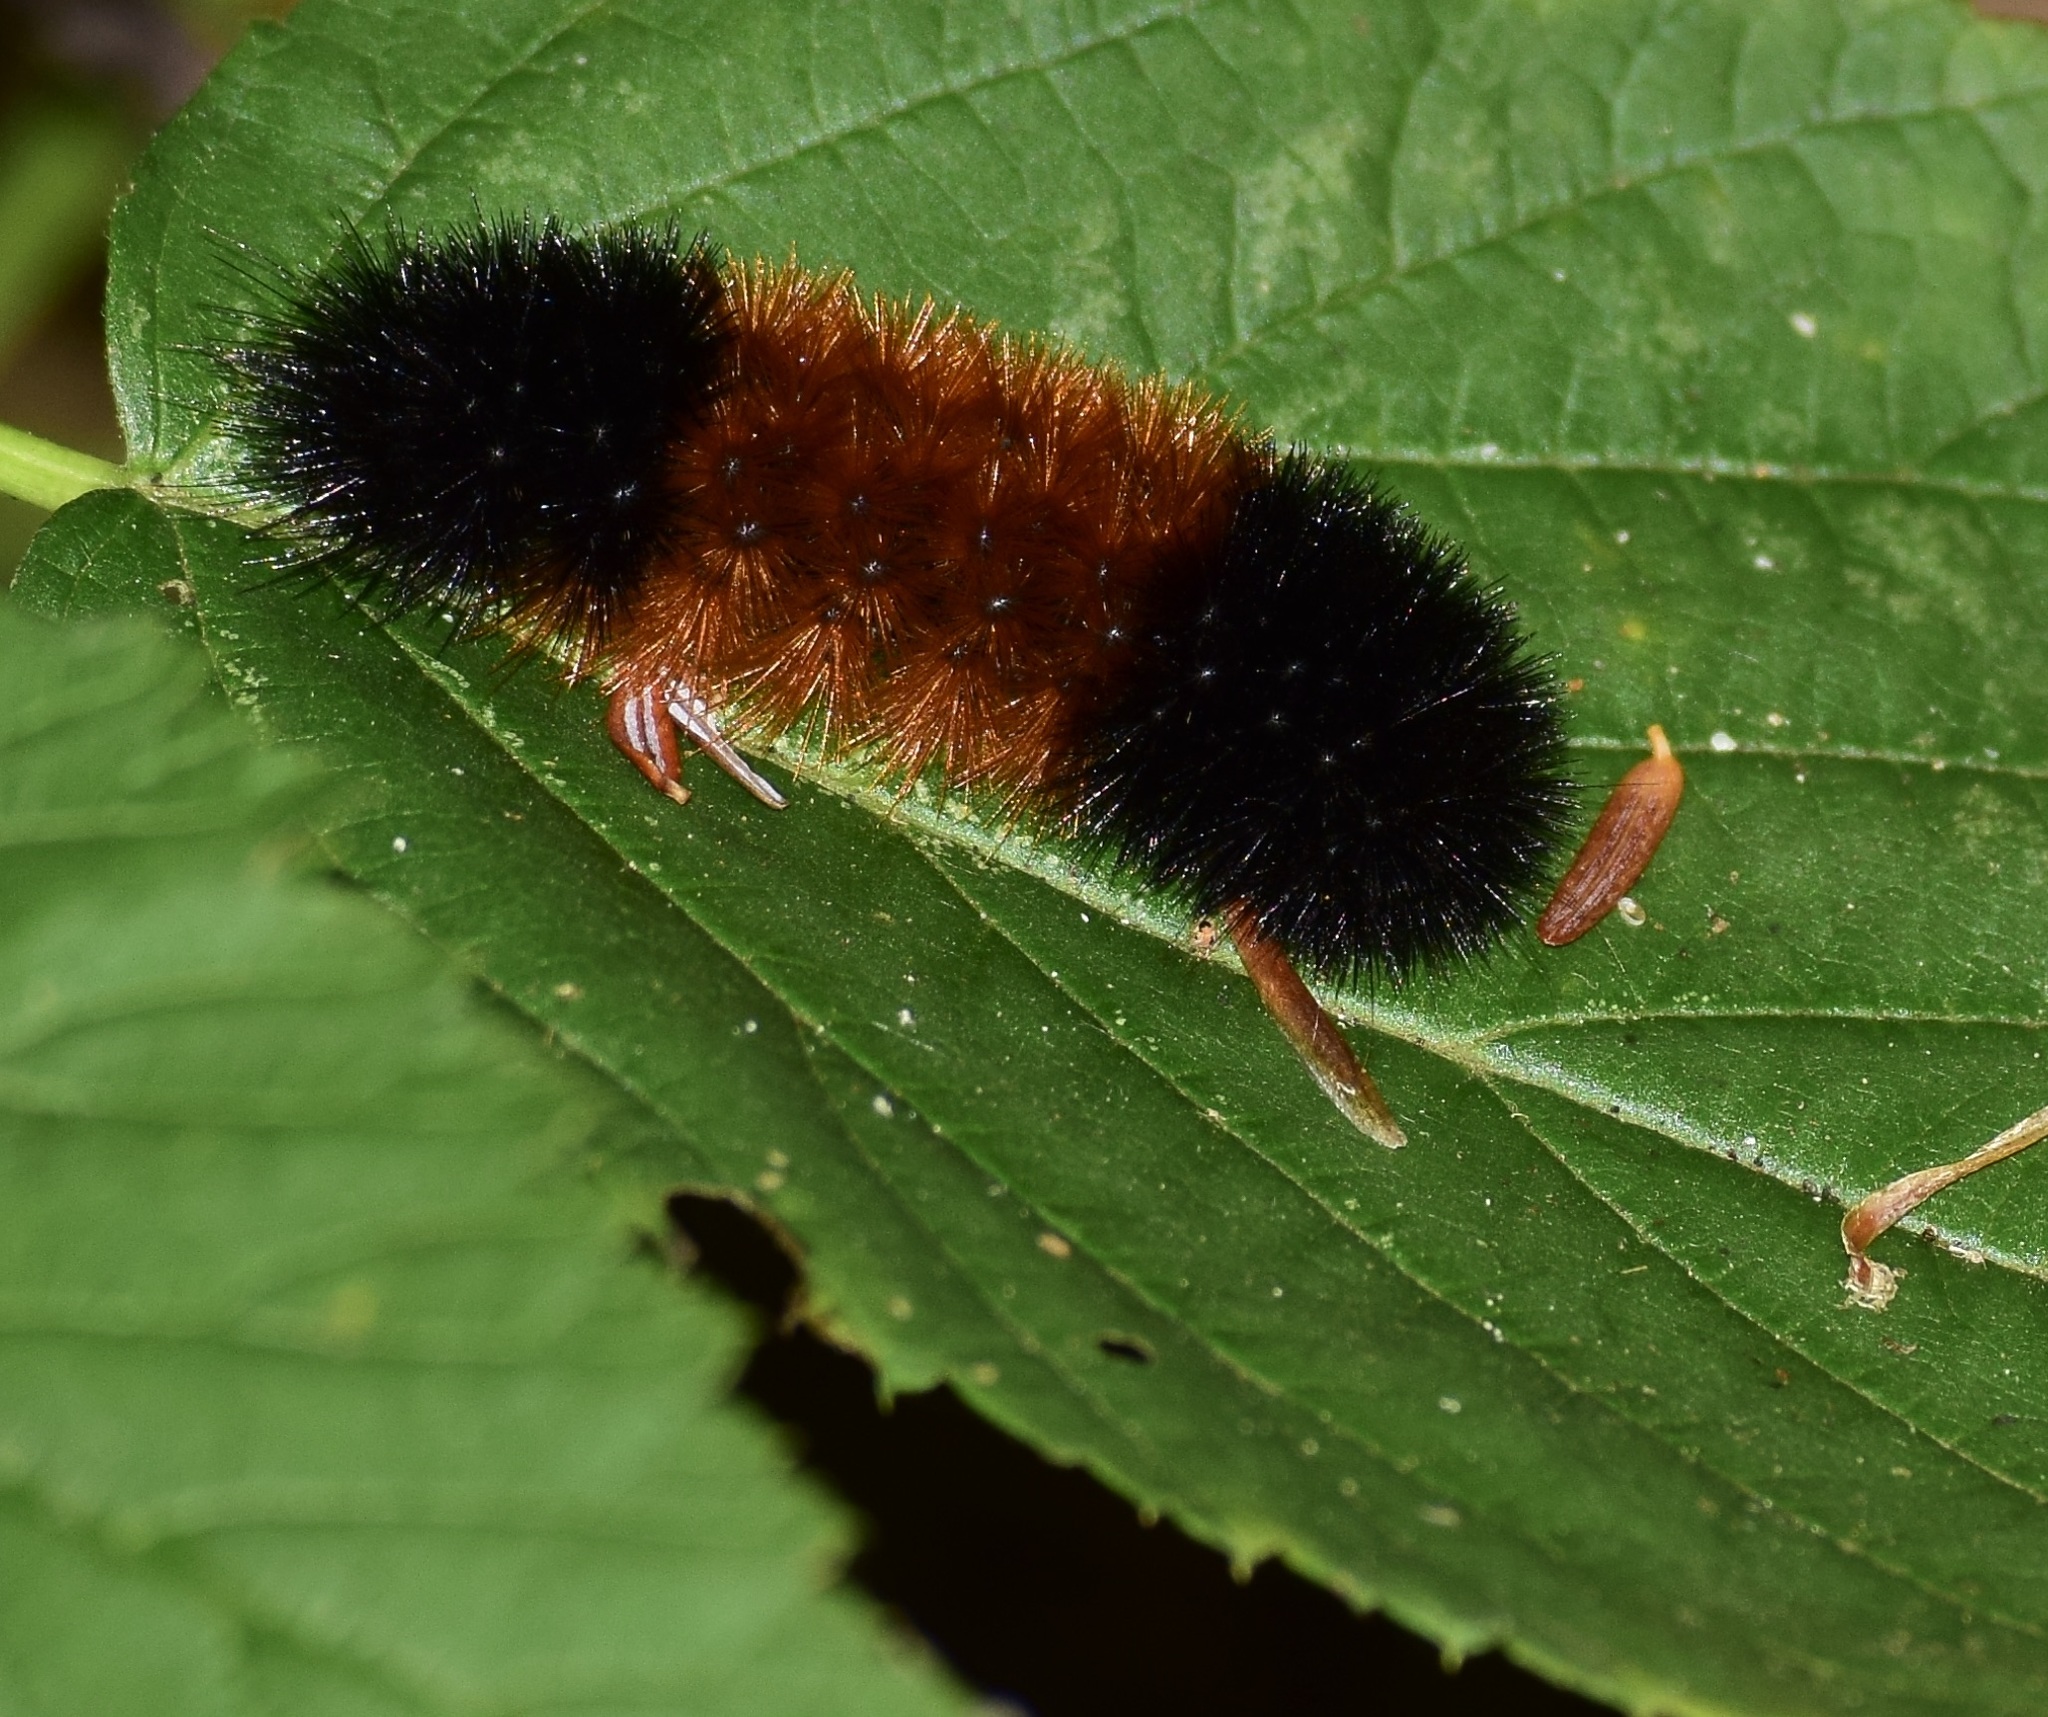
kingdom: Animalia
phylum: Arthropoda
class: Insecta
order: Lepidoptera
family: Erebidae
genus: Pyrrharctia
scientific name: Pyrrharctia isabella
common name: Isabella tiger moth
